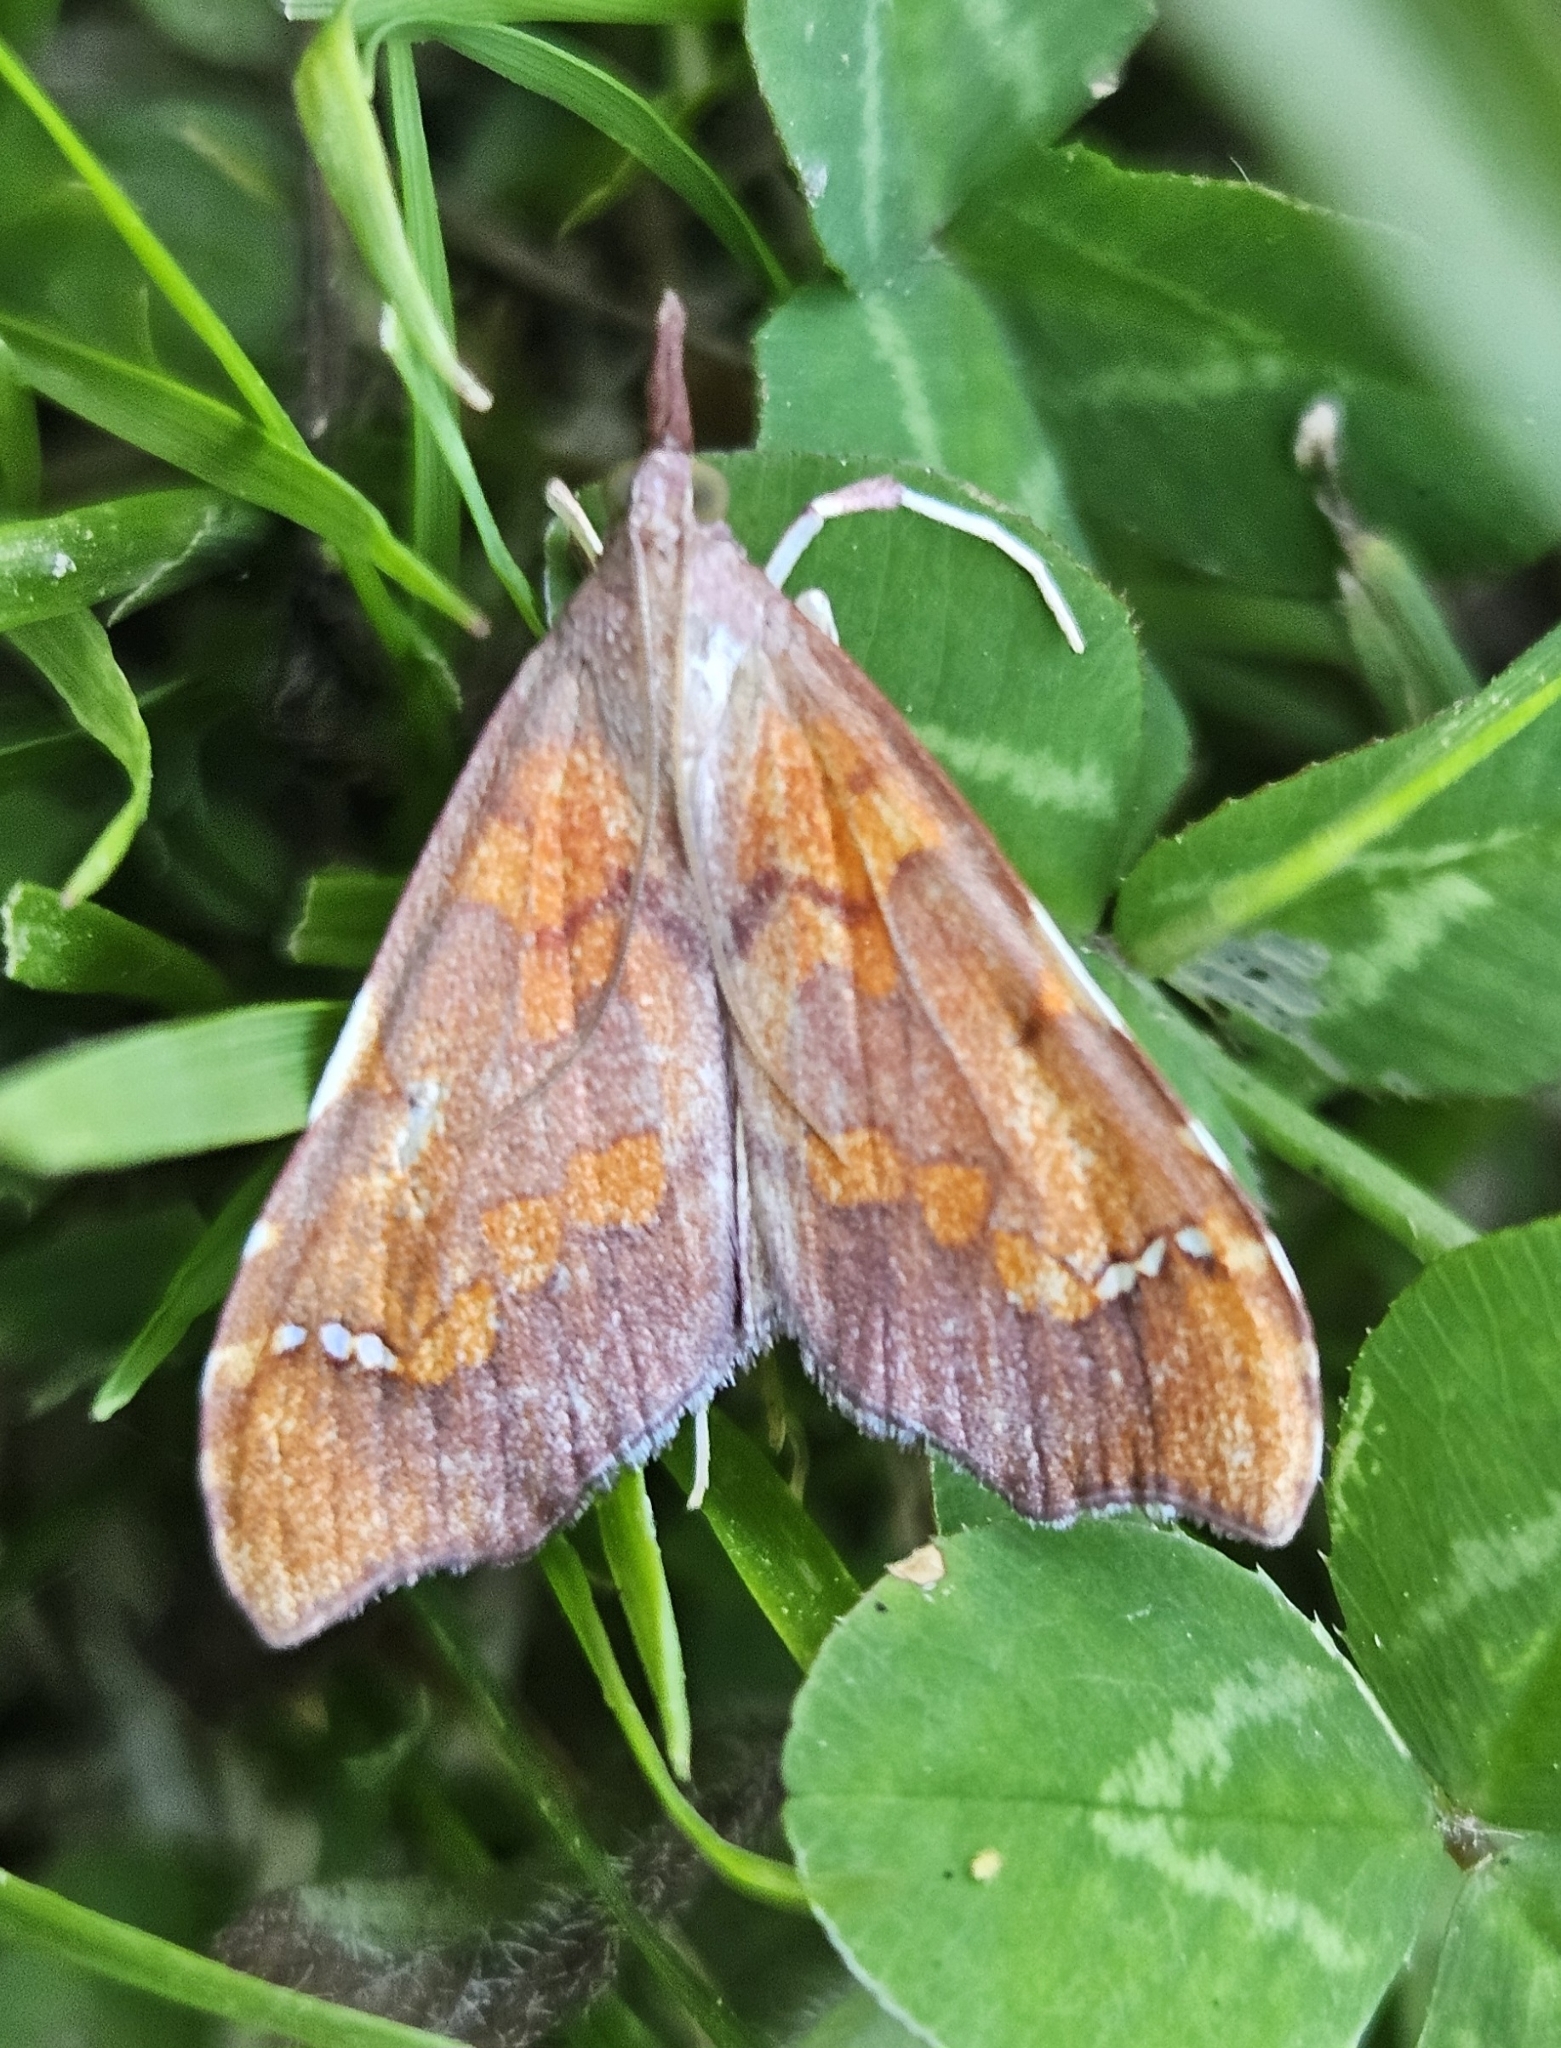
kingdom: Animalia
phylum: Arthropoda
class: Insecta
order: Lepidoptera
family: Crambidae
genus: Deana
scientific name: Deana hybreasalis
